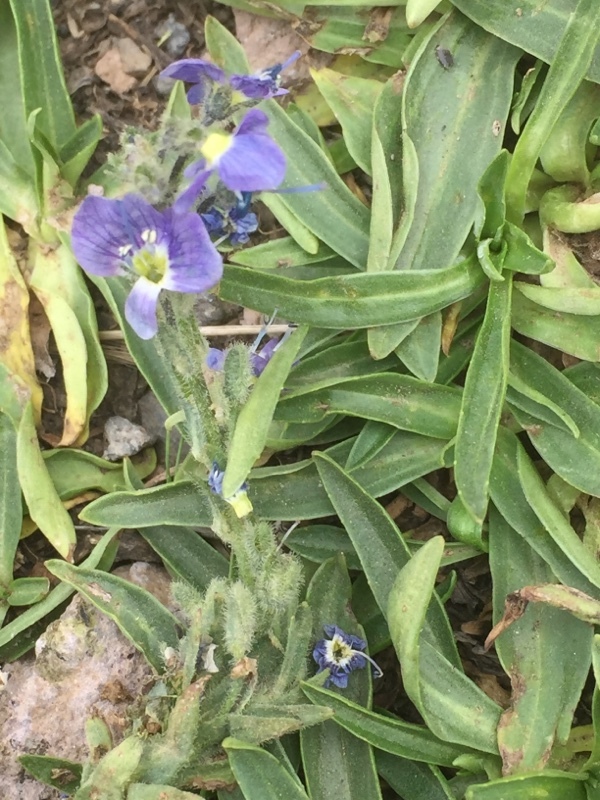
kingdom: Plantae
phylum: Tracheophyta
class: Magnoliopsida
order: Lamiales
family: Plantaginaceae
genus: Veronica
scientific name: Veronica gentianoides
